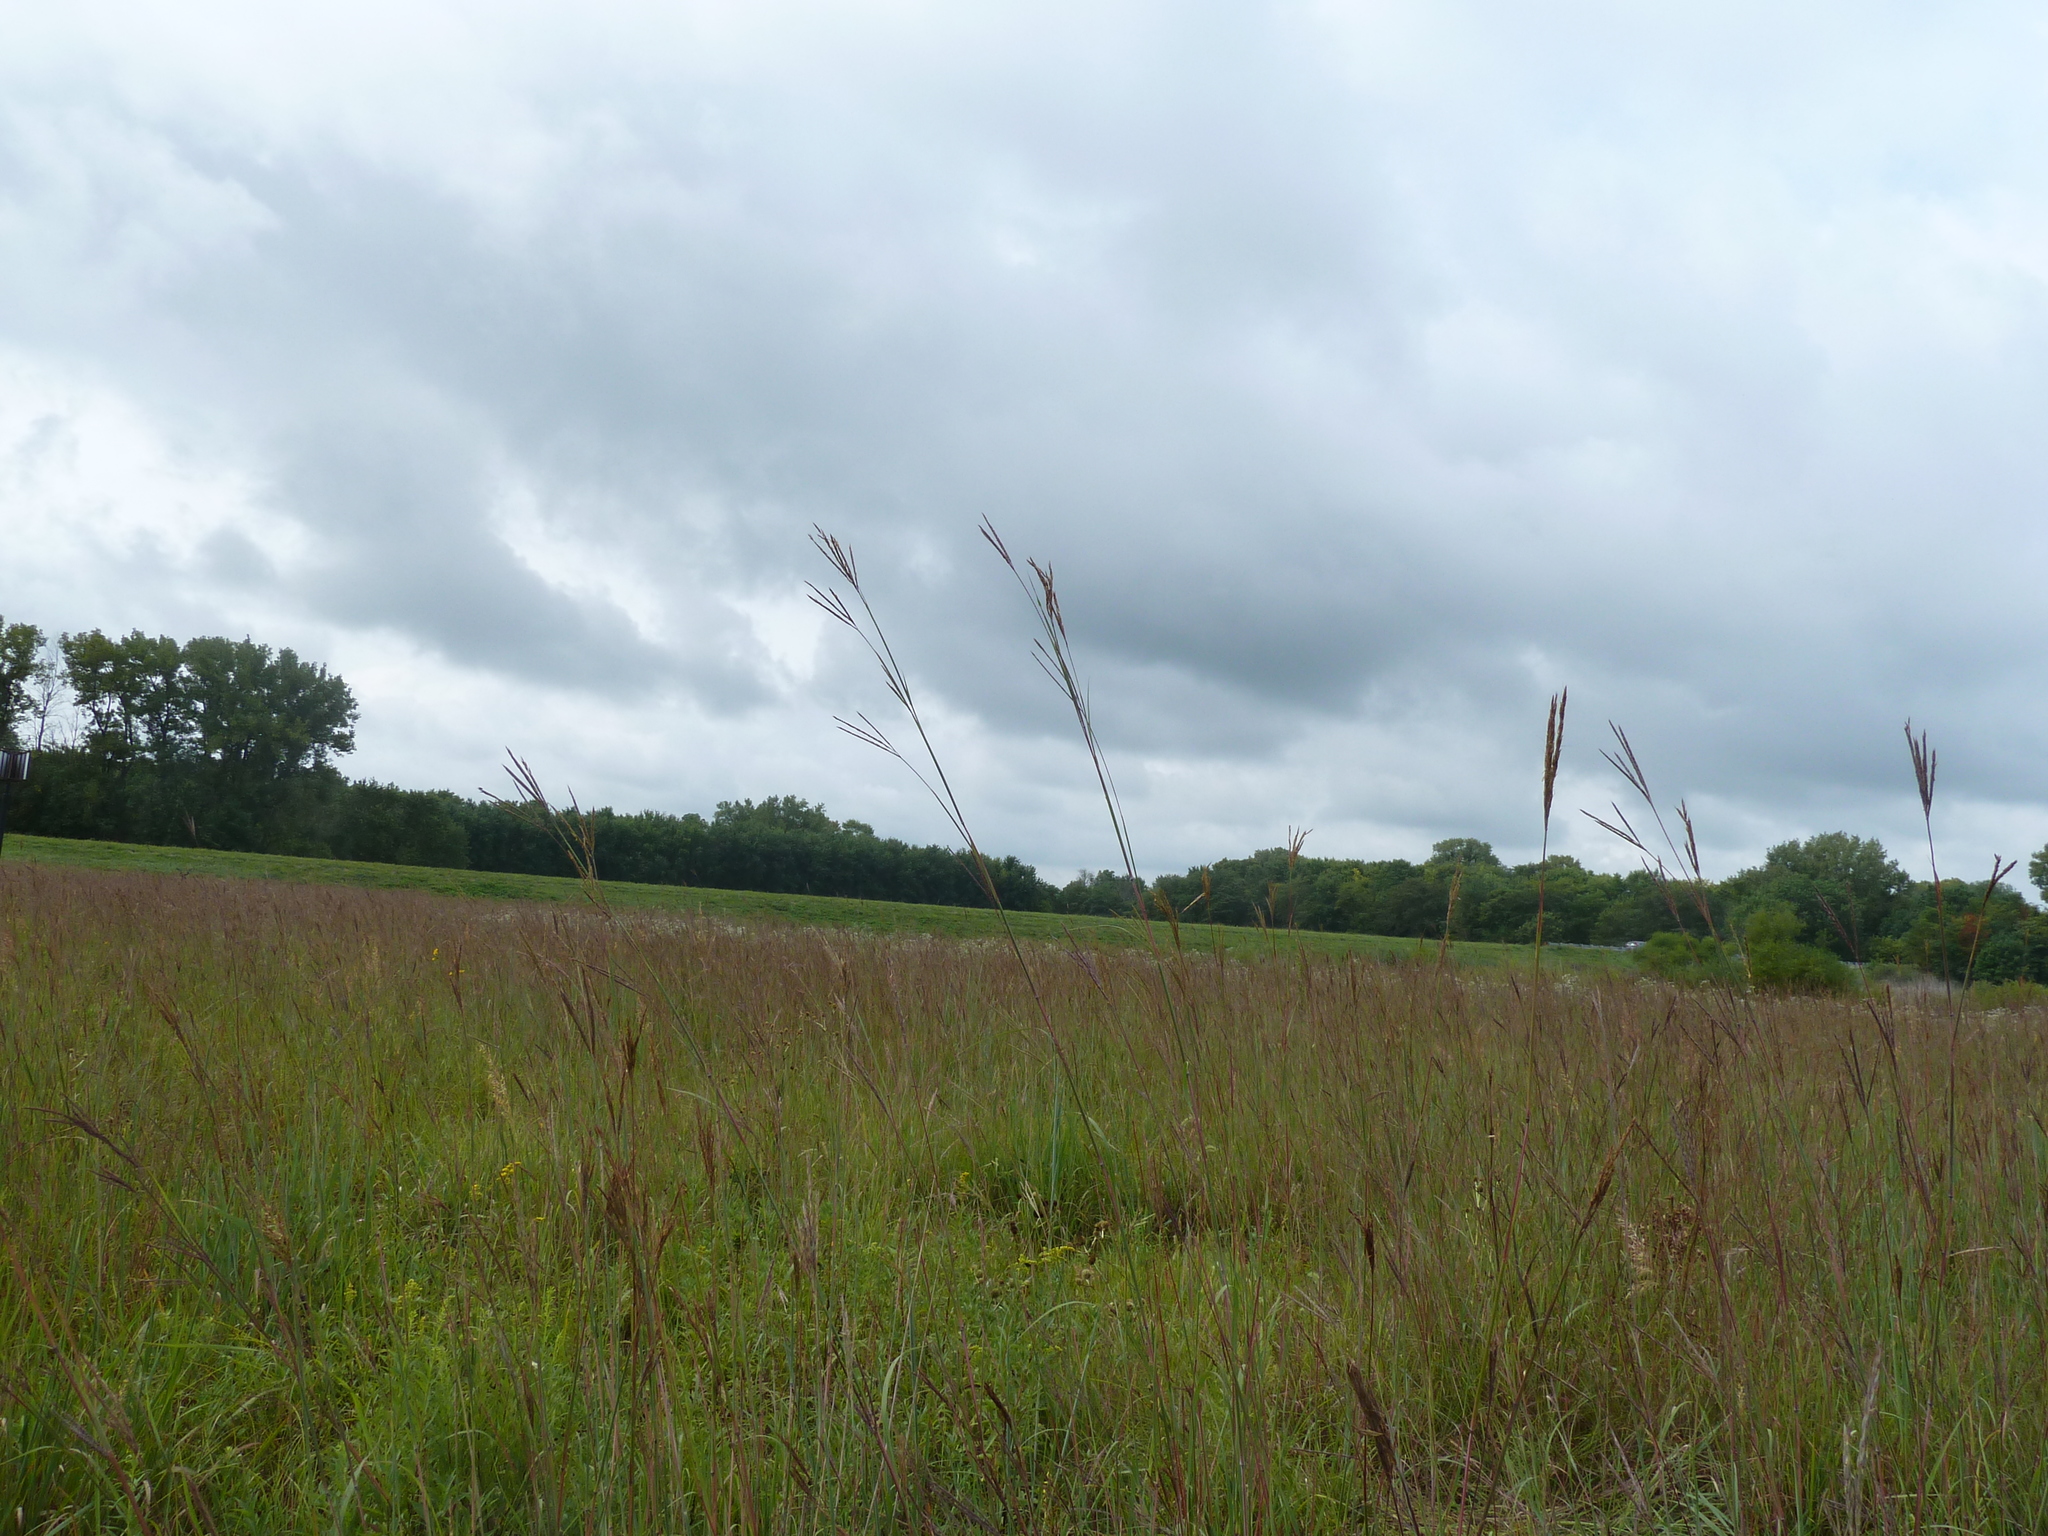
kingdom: Plantae
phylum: Tracheophyta
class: Liliopsida
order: Poales
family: Poaceae
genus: Andropogon
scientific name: Andropogon gerardi
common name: Big bluestem
